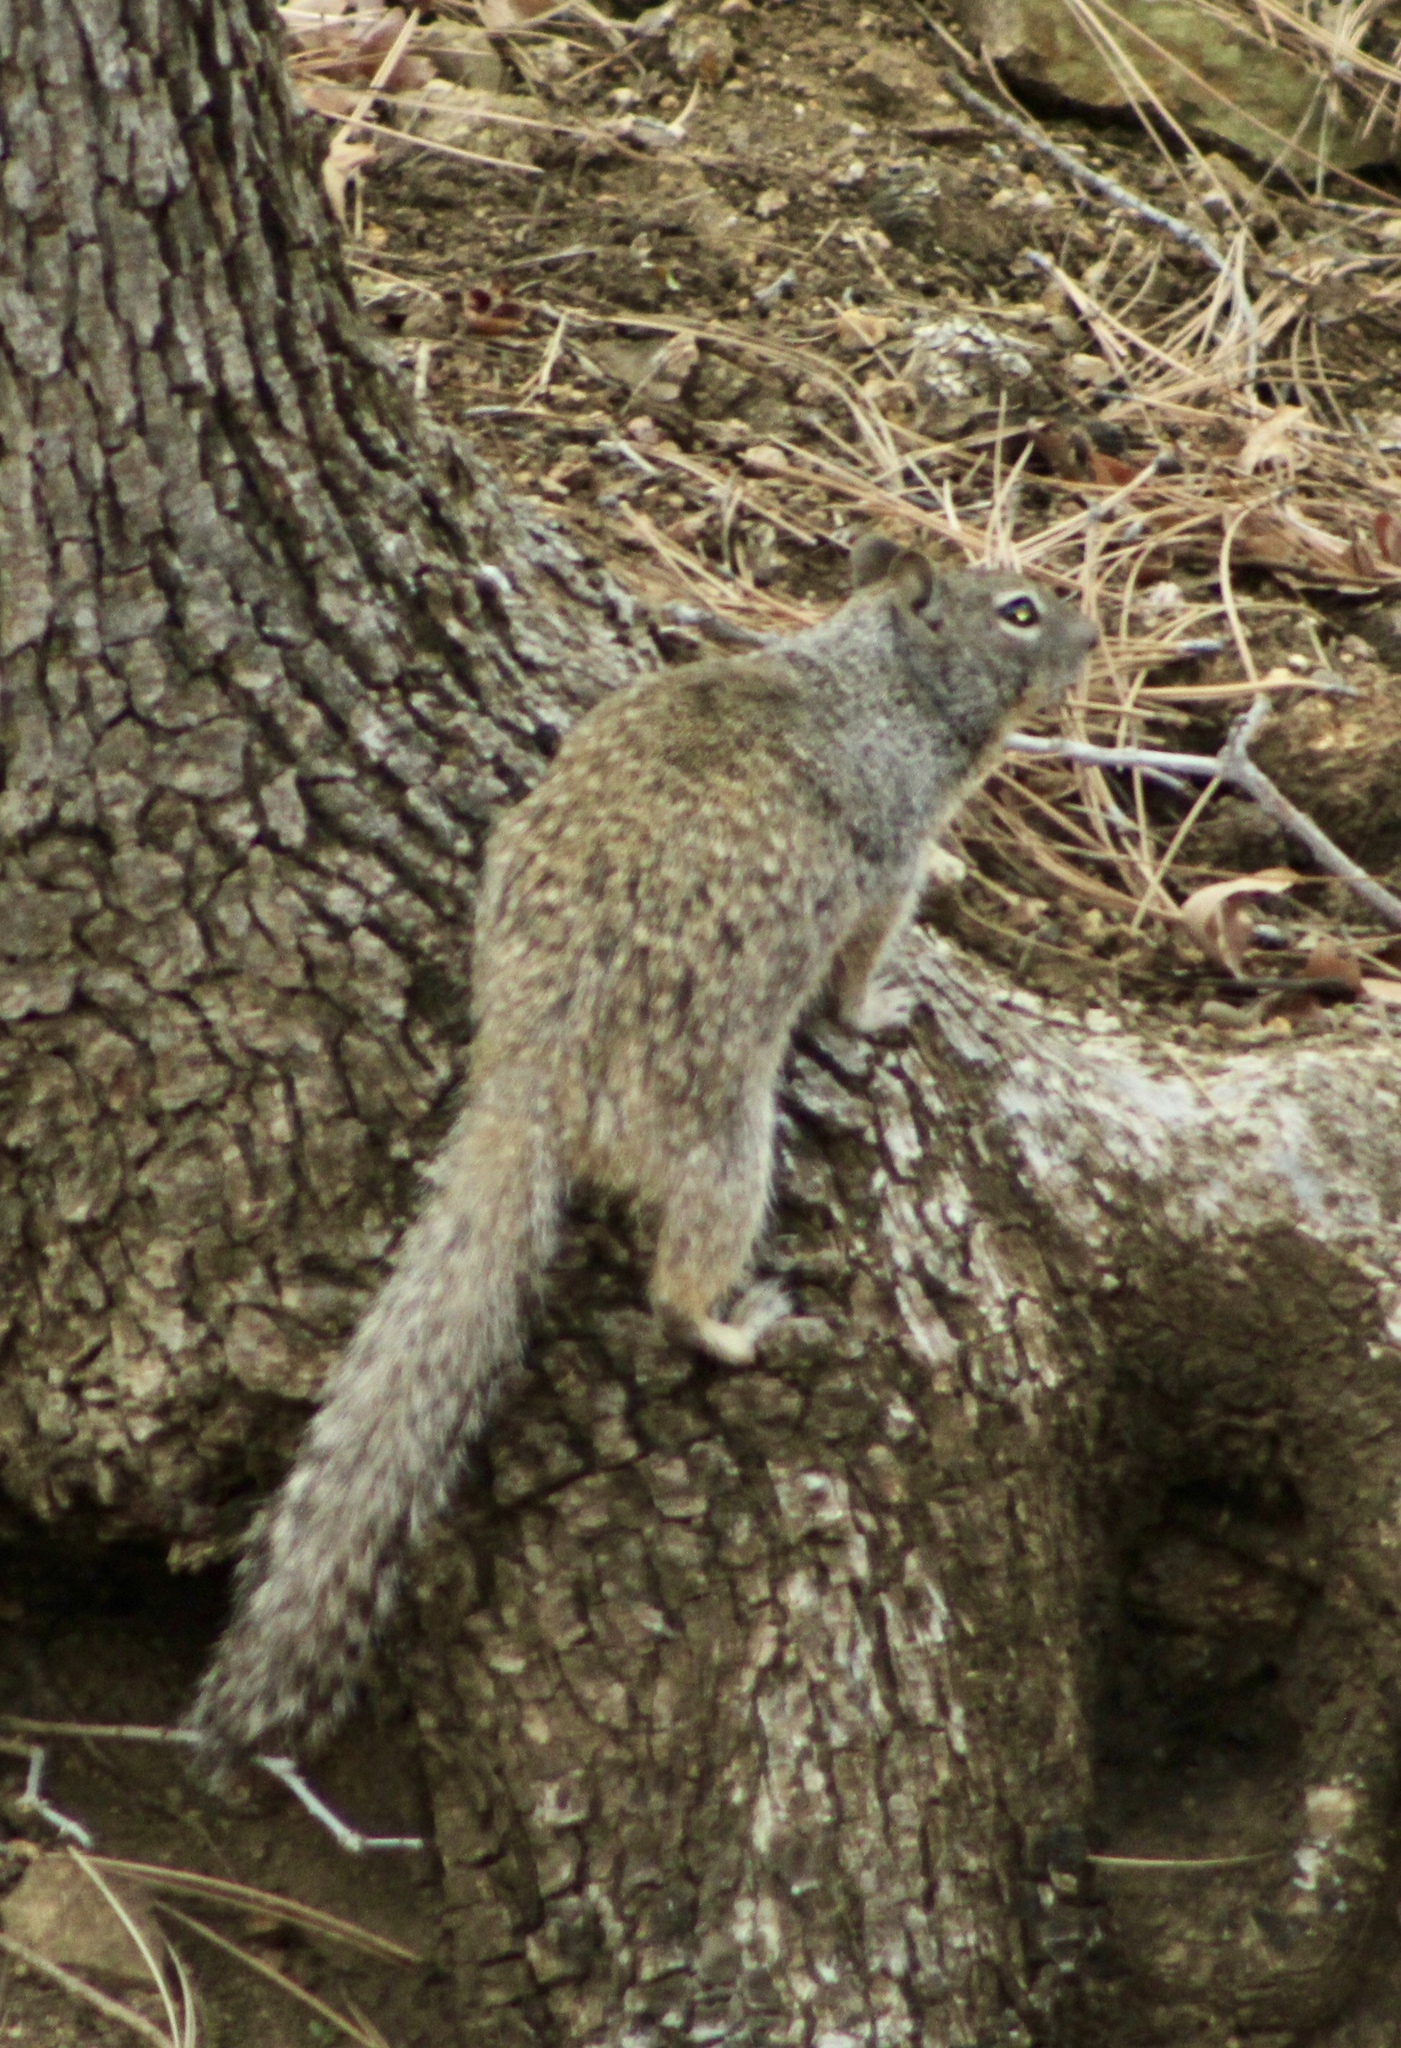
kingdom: Animalia
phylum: Chordata
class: Mammalia
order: Rodentia
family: Sciuridae
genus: Otospermophilus
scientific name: Otospermophilus variegatus
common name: Rock squirrel
